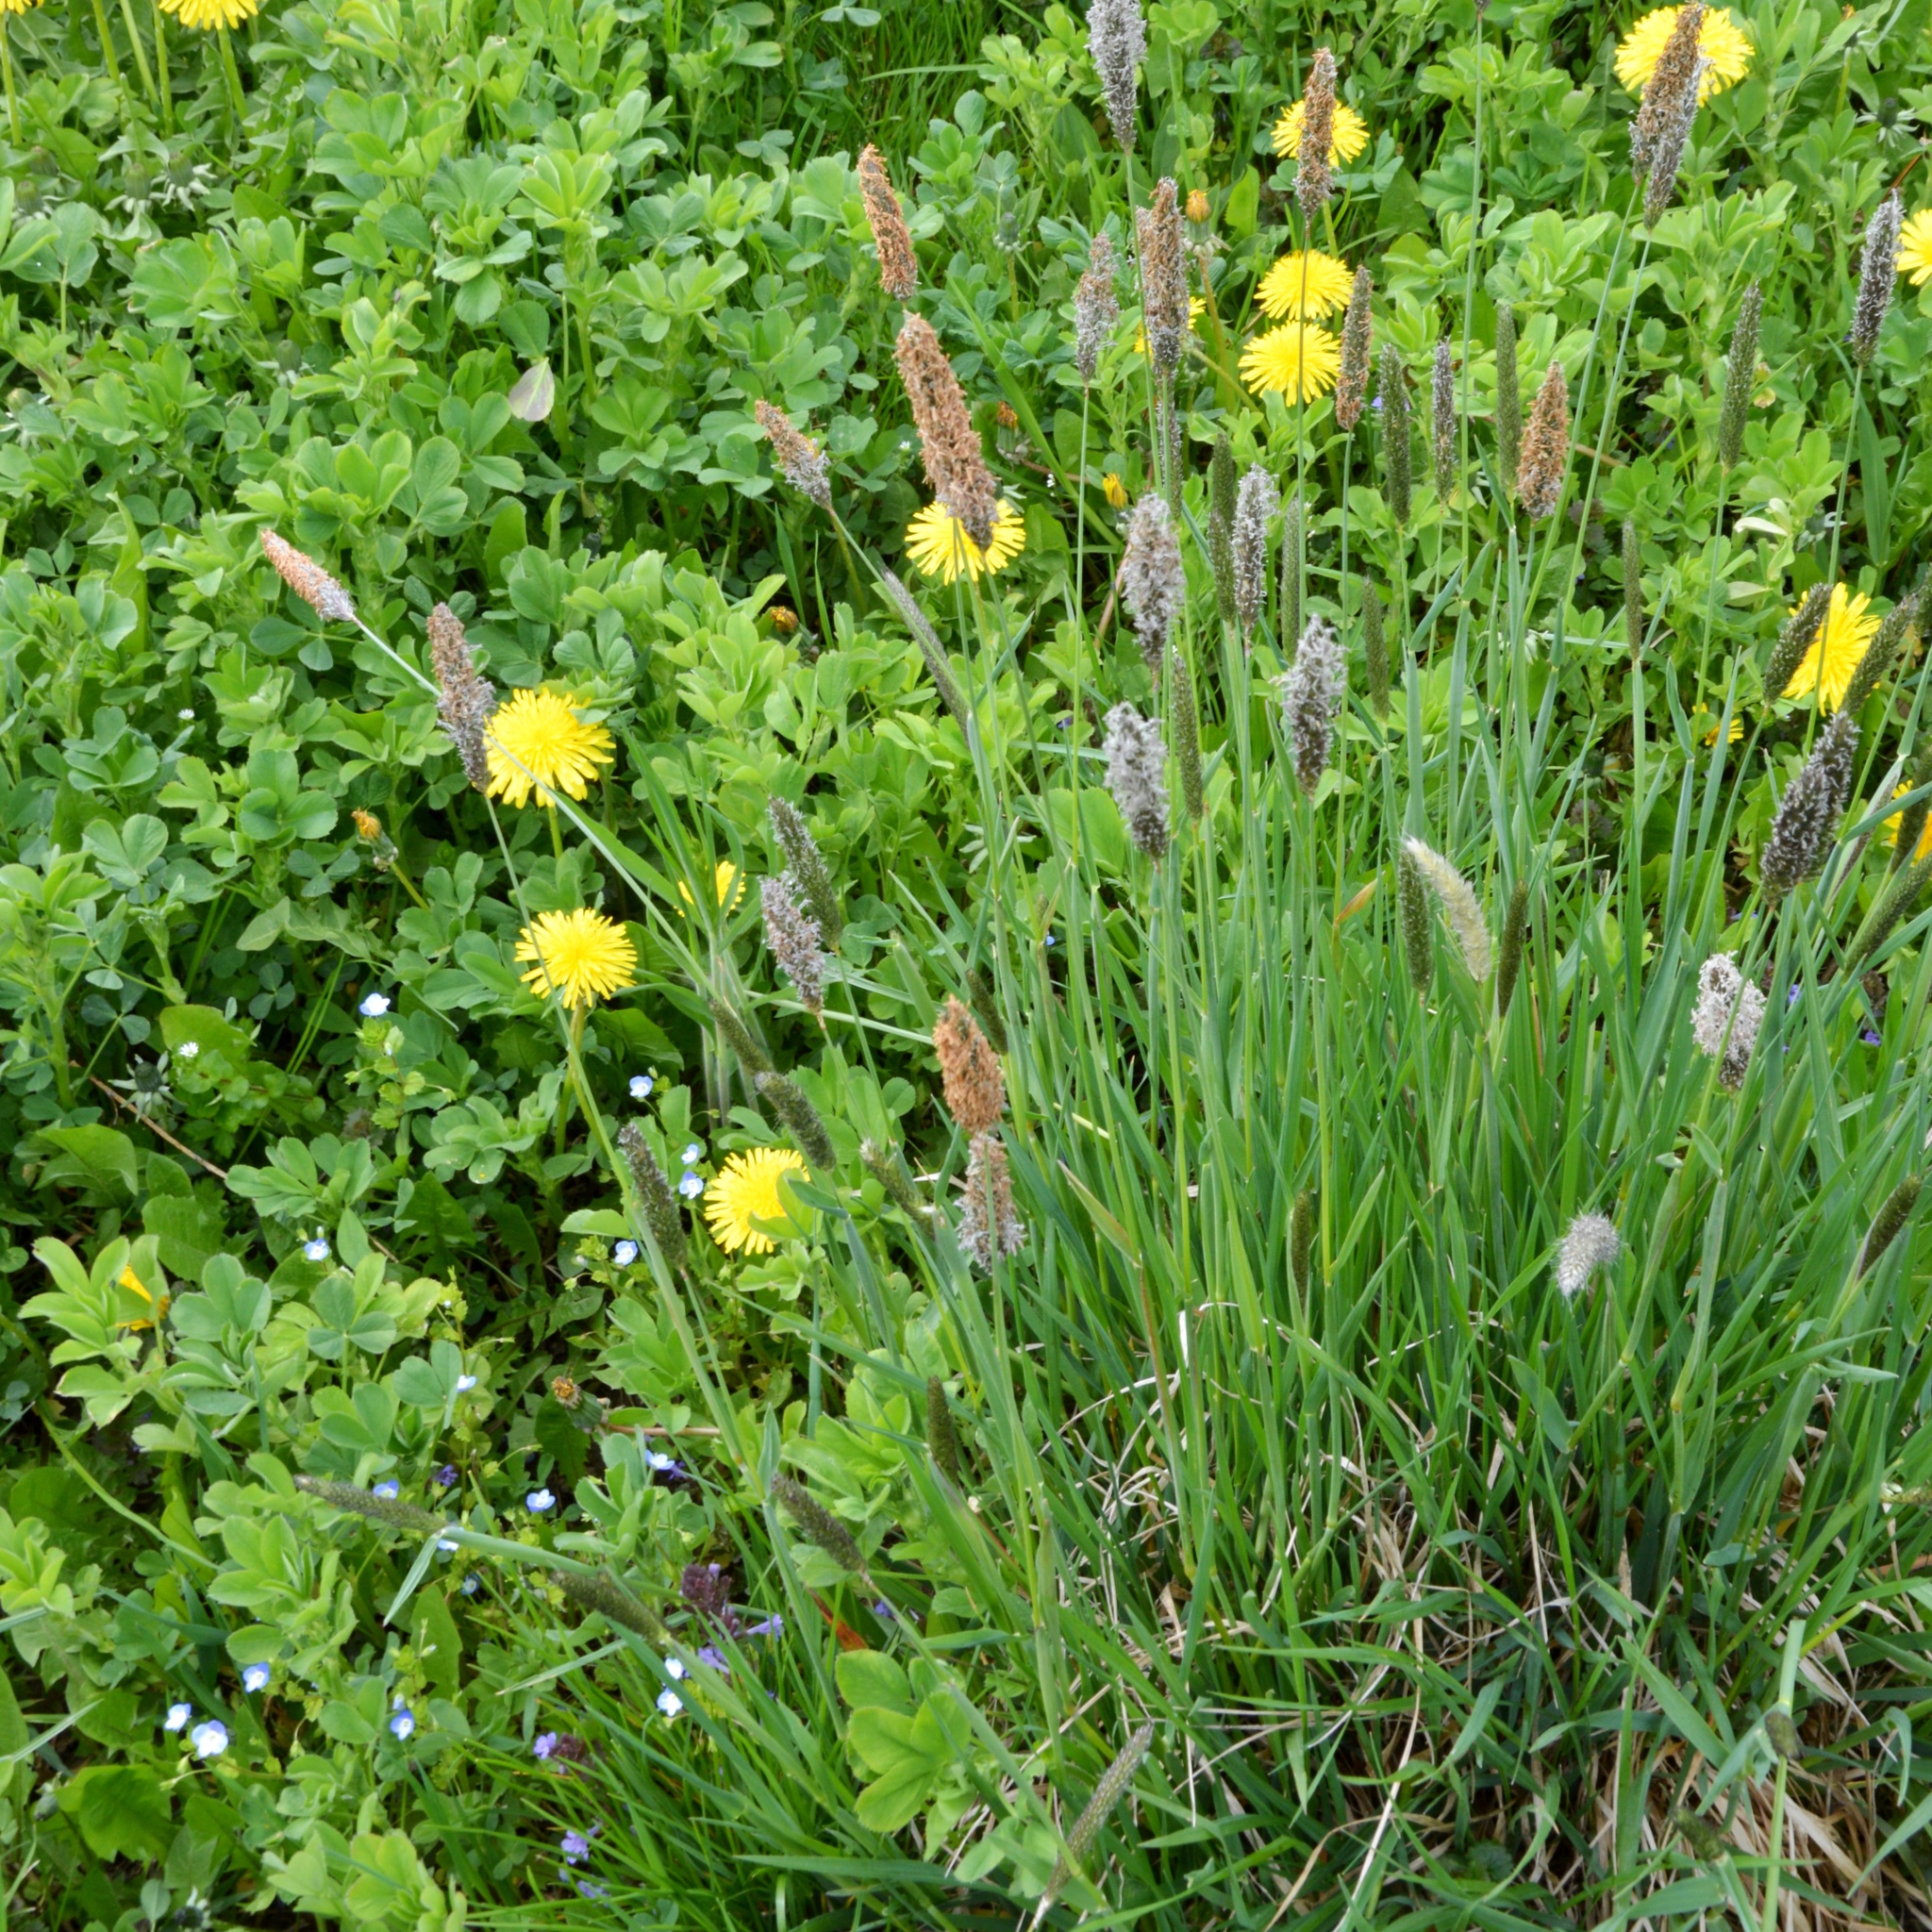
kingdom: Plantae
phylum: Tracheophyta
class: Liliopsida
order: Poales
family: Poaceae
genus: Alopecurus
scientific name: Alopecurus pratensis
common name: Meadow foxtail
